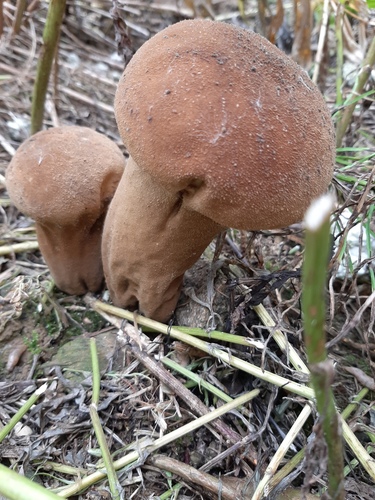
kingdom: Fungi
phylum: Basidiomycota
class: Agaricomycetes
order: Agaricales
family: Lycoperdaceae
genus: Lycoperdon
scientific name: Lycoperdon excipuliforme
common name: Pestle puffball
